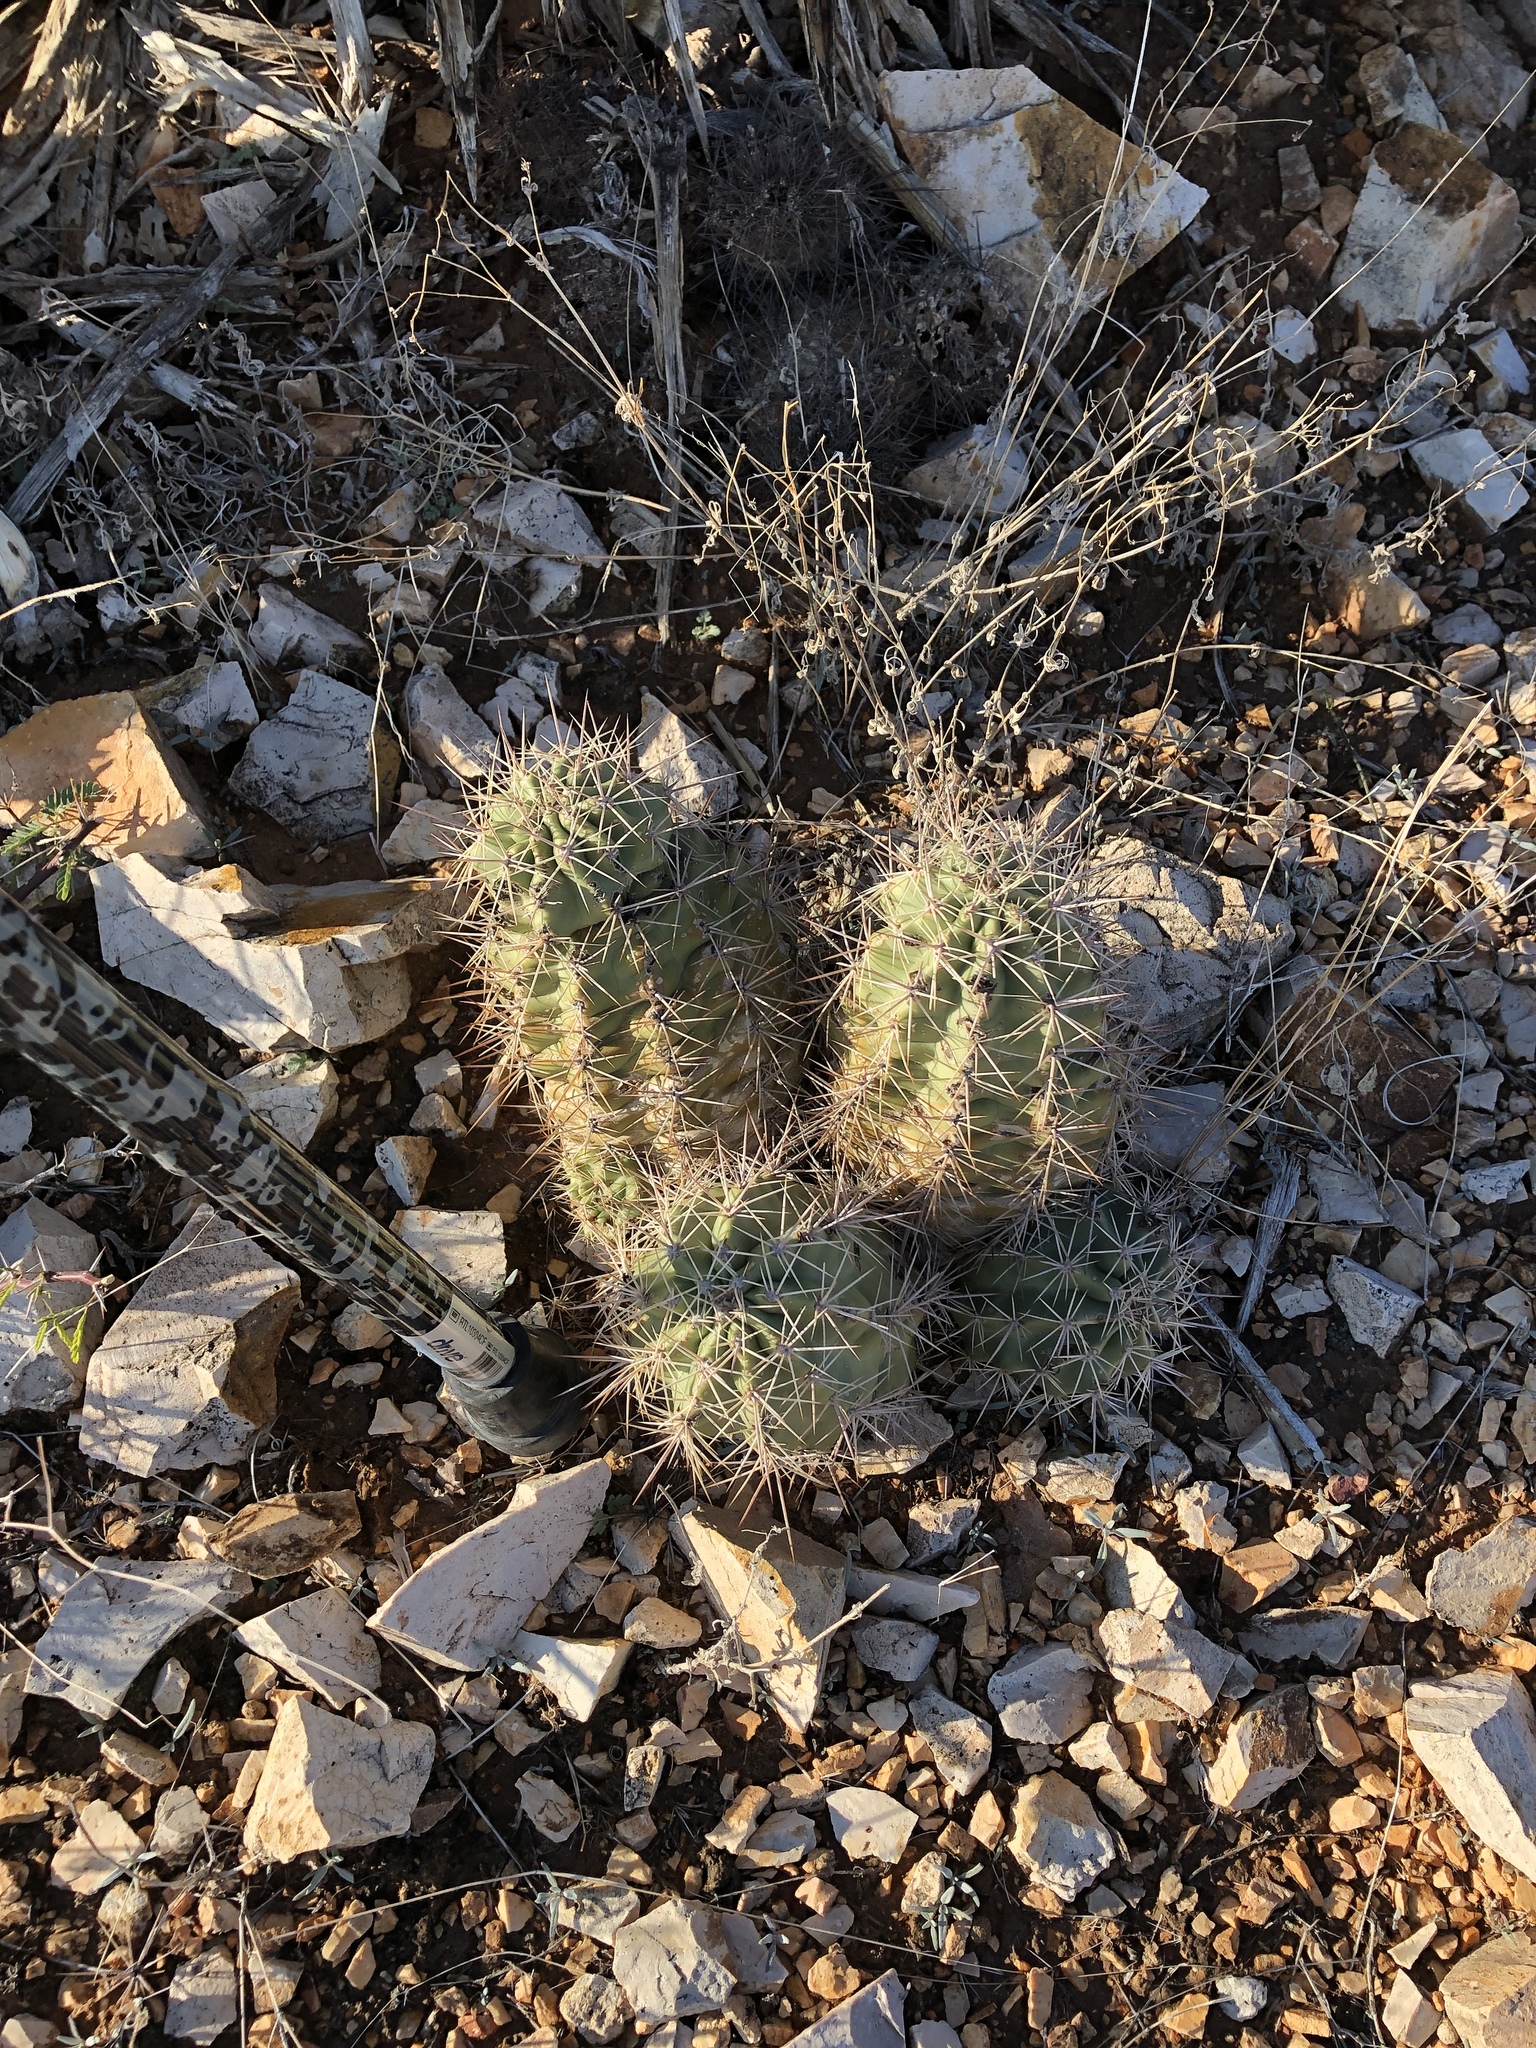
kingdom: Plantae
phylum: Tracheophyta
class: Magnoliopsida
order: Caryophyllales
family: Cactaceae
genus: Echinocereus
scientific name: Echinocereus coccineus
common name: Scarlet hedgehog cactus
